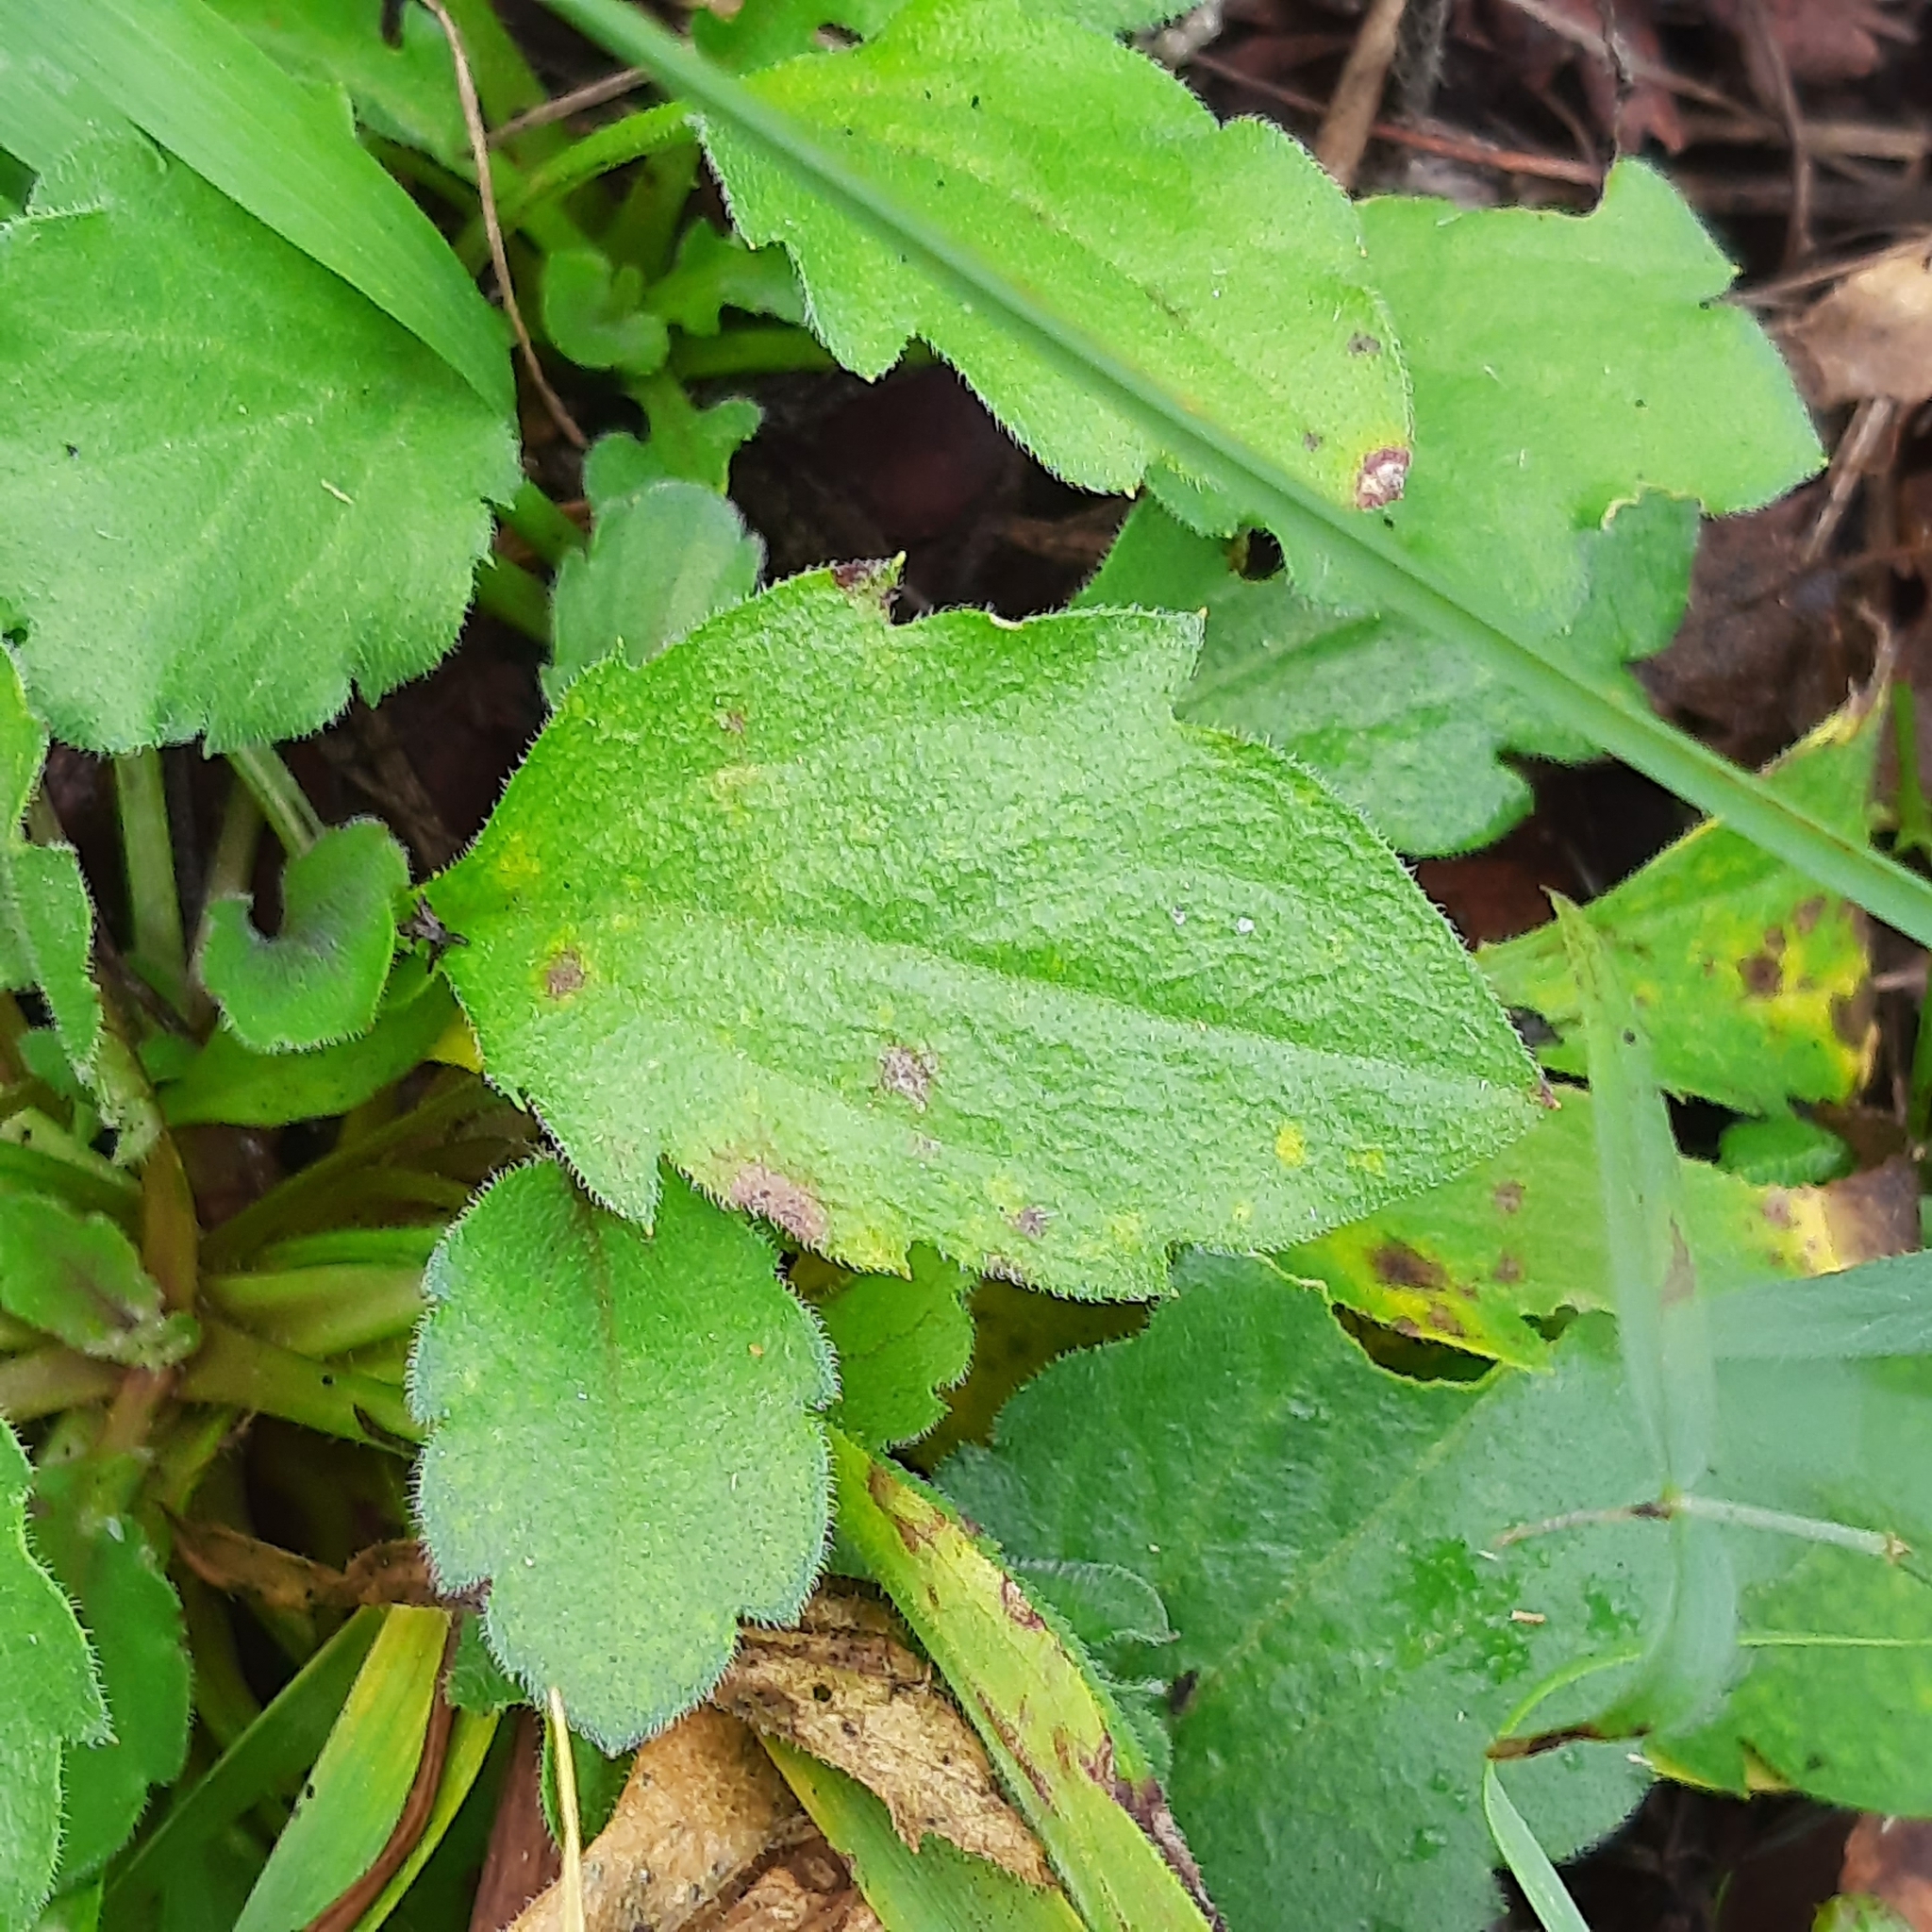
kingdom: Plantae
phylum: Tracheophyta
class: Magnoliopsida
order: Asterales
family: Asteraceae
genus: Erigeron
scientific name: Erigeron annuus
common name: Tall fleabane
